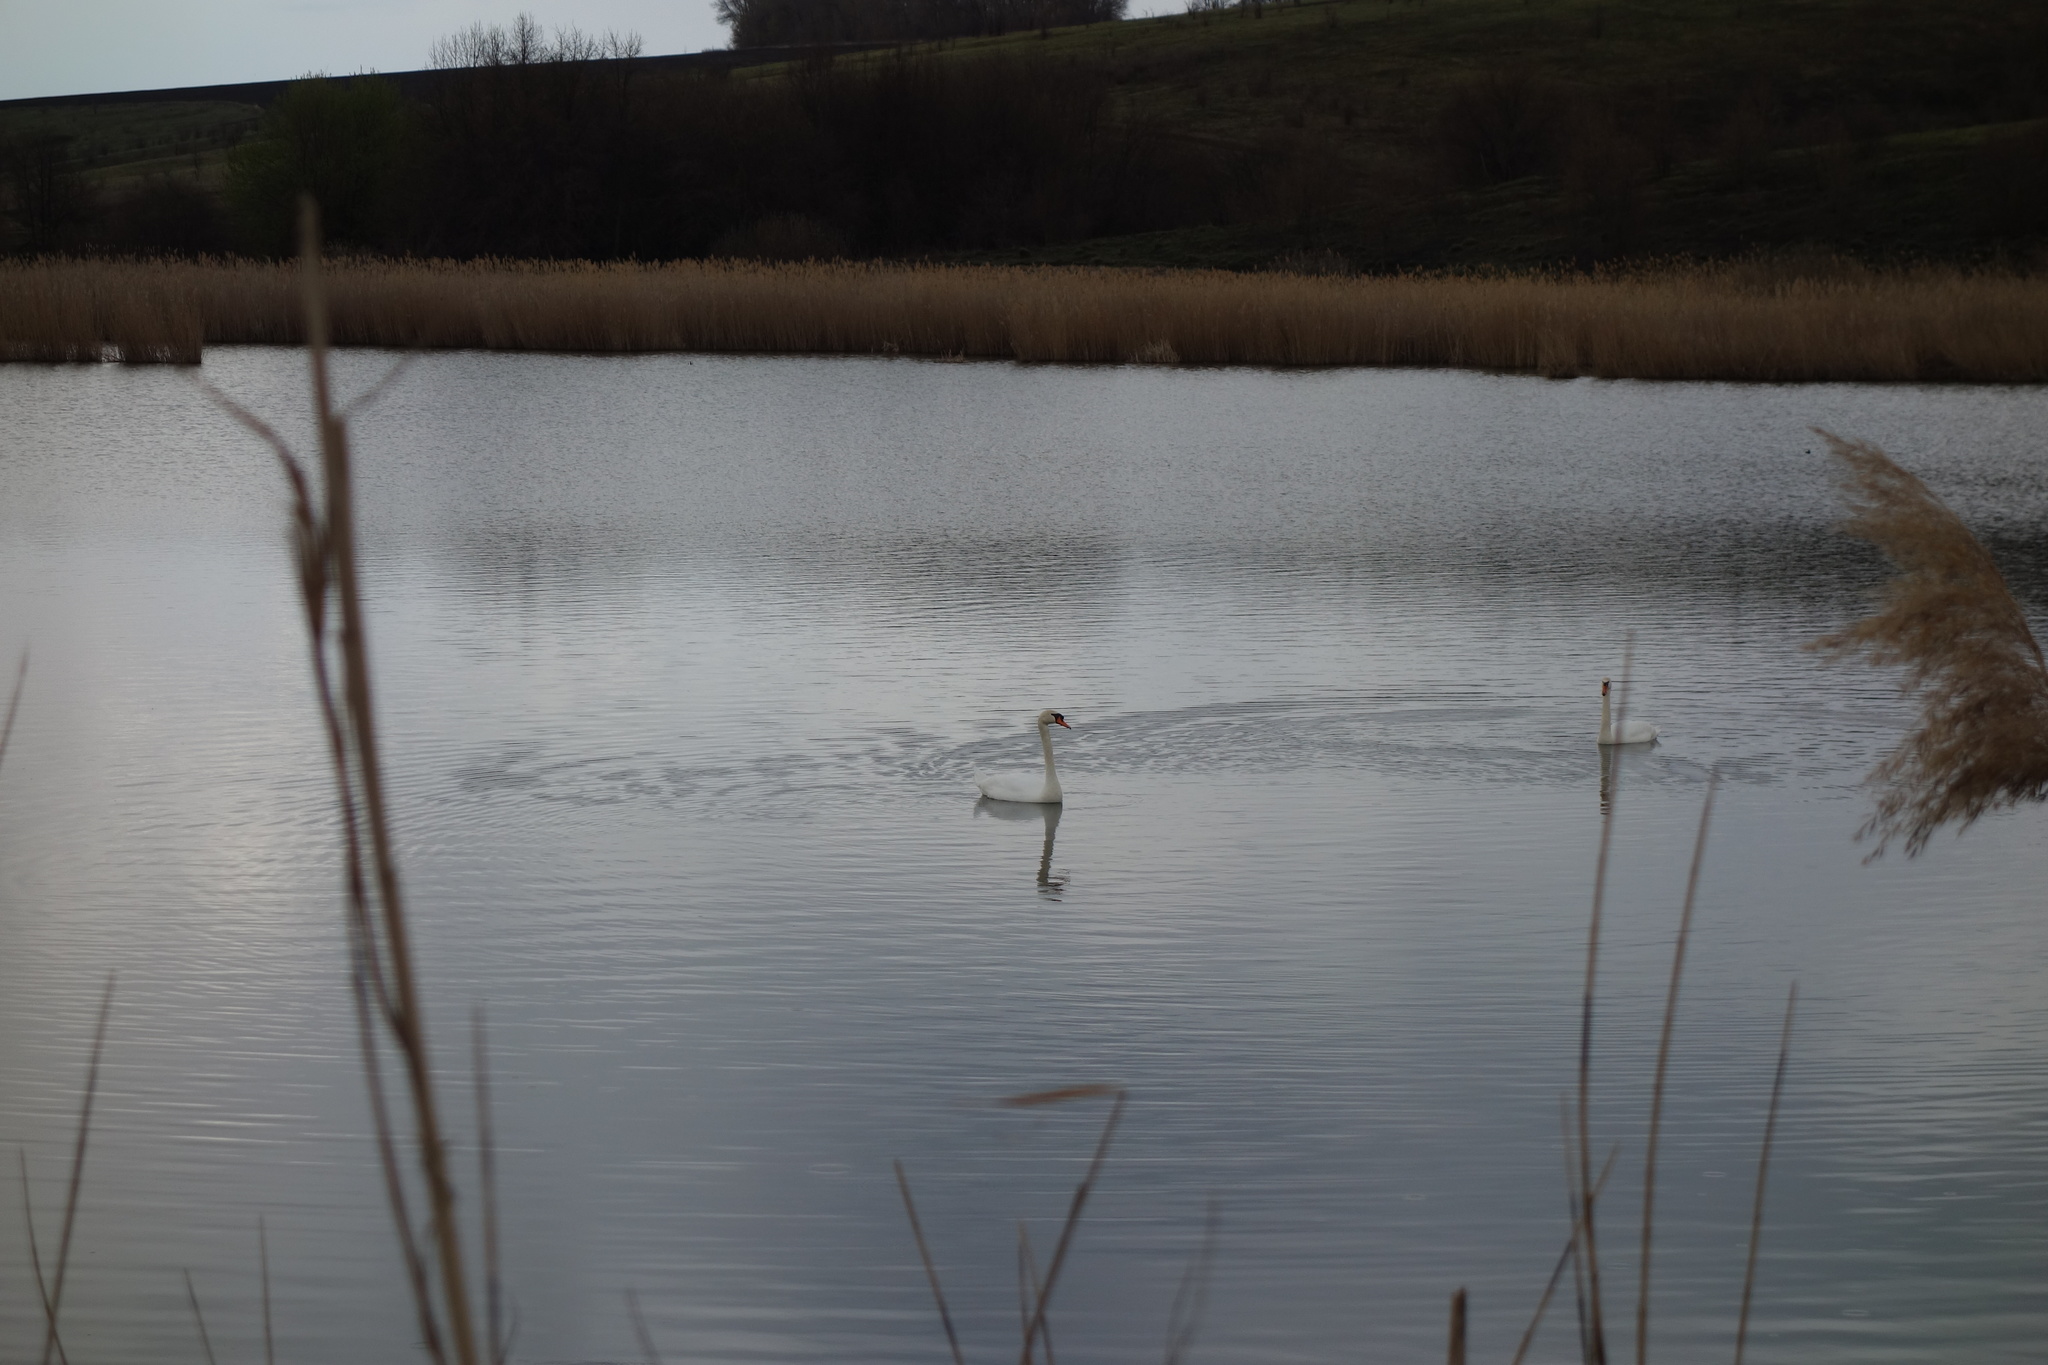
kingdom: Animalia
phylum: Chordata
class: Aves
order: Anseriformes
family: Anatidae
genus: Cygnus
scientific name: Cygnus olor
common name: Mute swan
